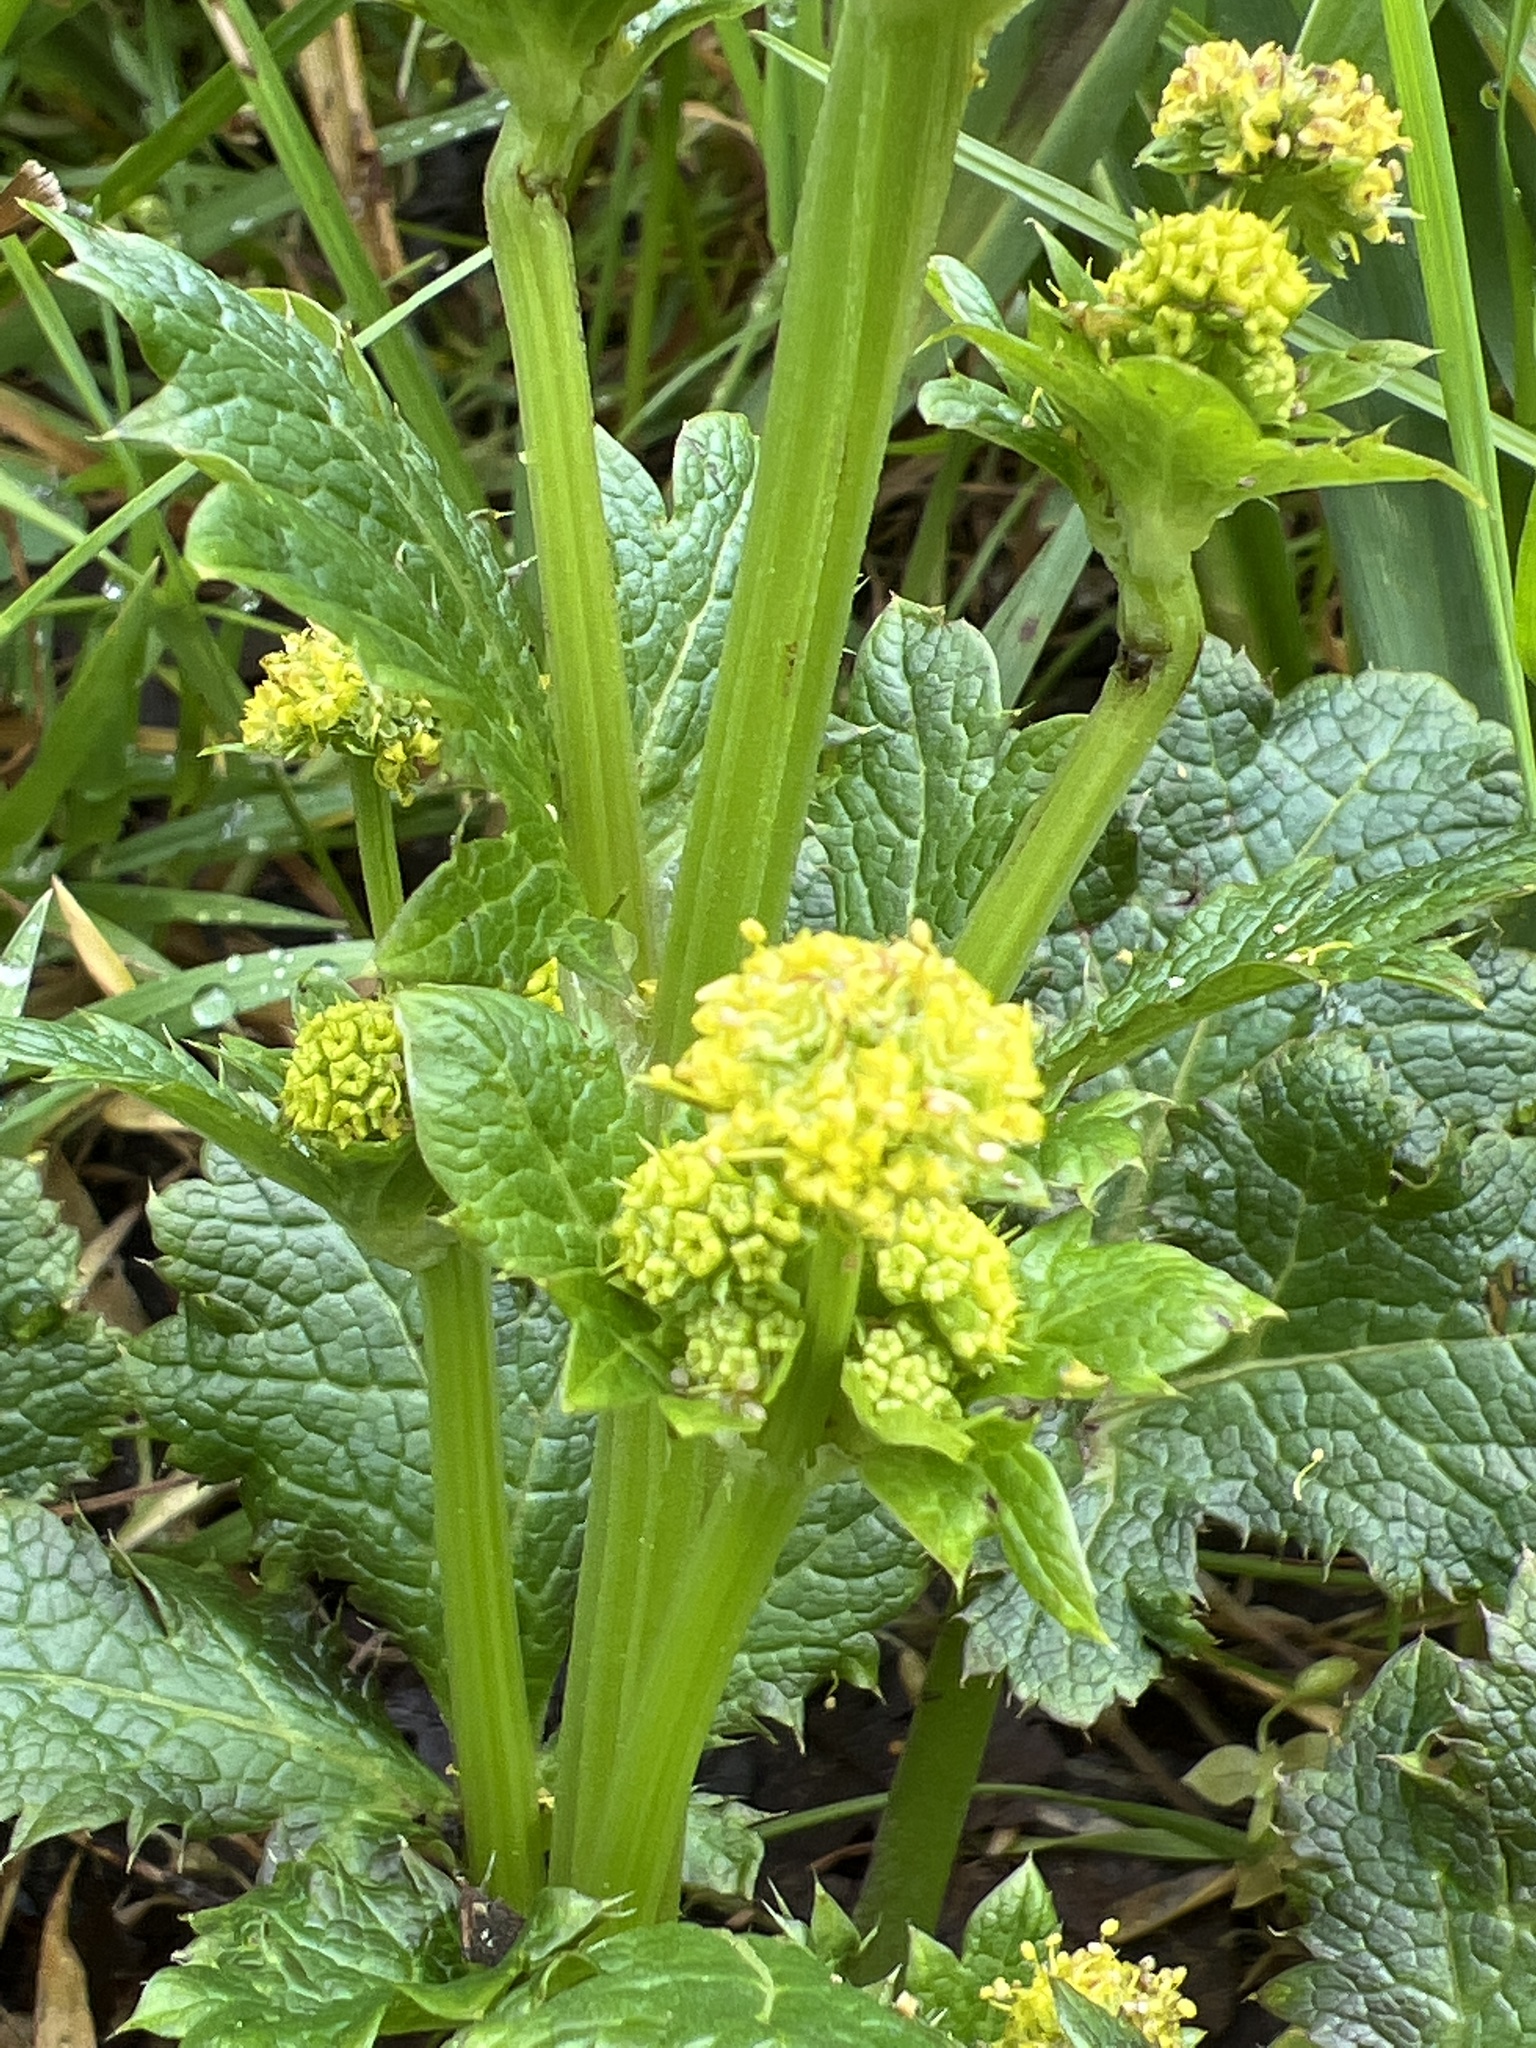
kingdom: Plantae
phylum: Tracheophyta
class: Magnoliopsida
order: Apiales
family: Apiaceae
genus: Sanicula
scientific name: Sanicula crassicaulis
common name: Western snakeroot
